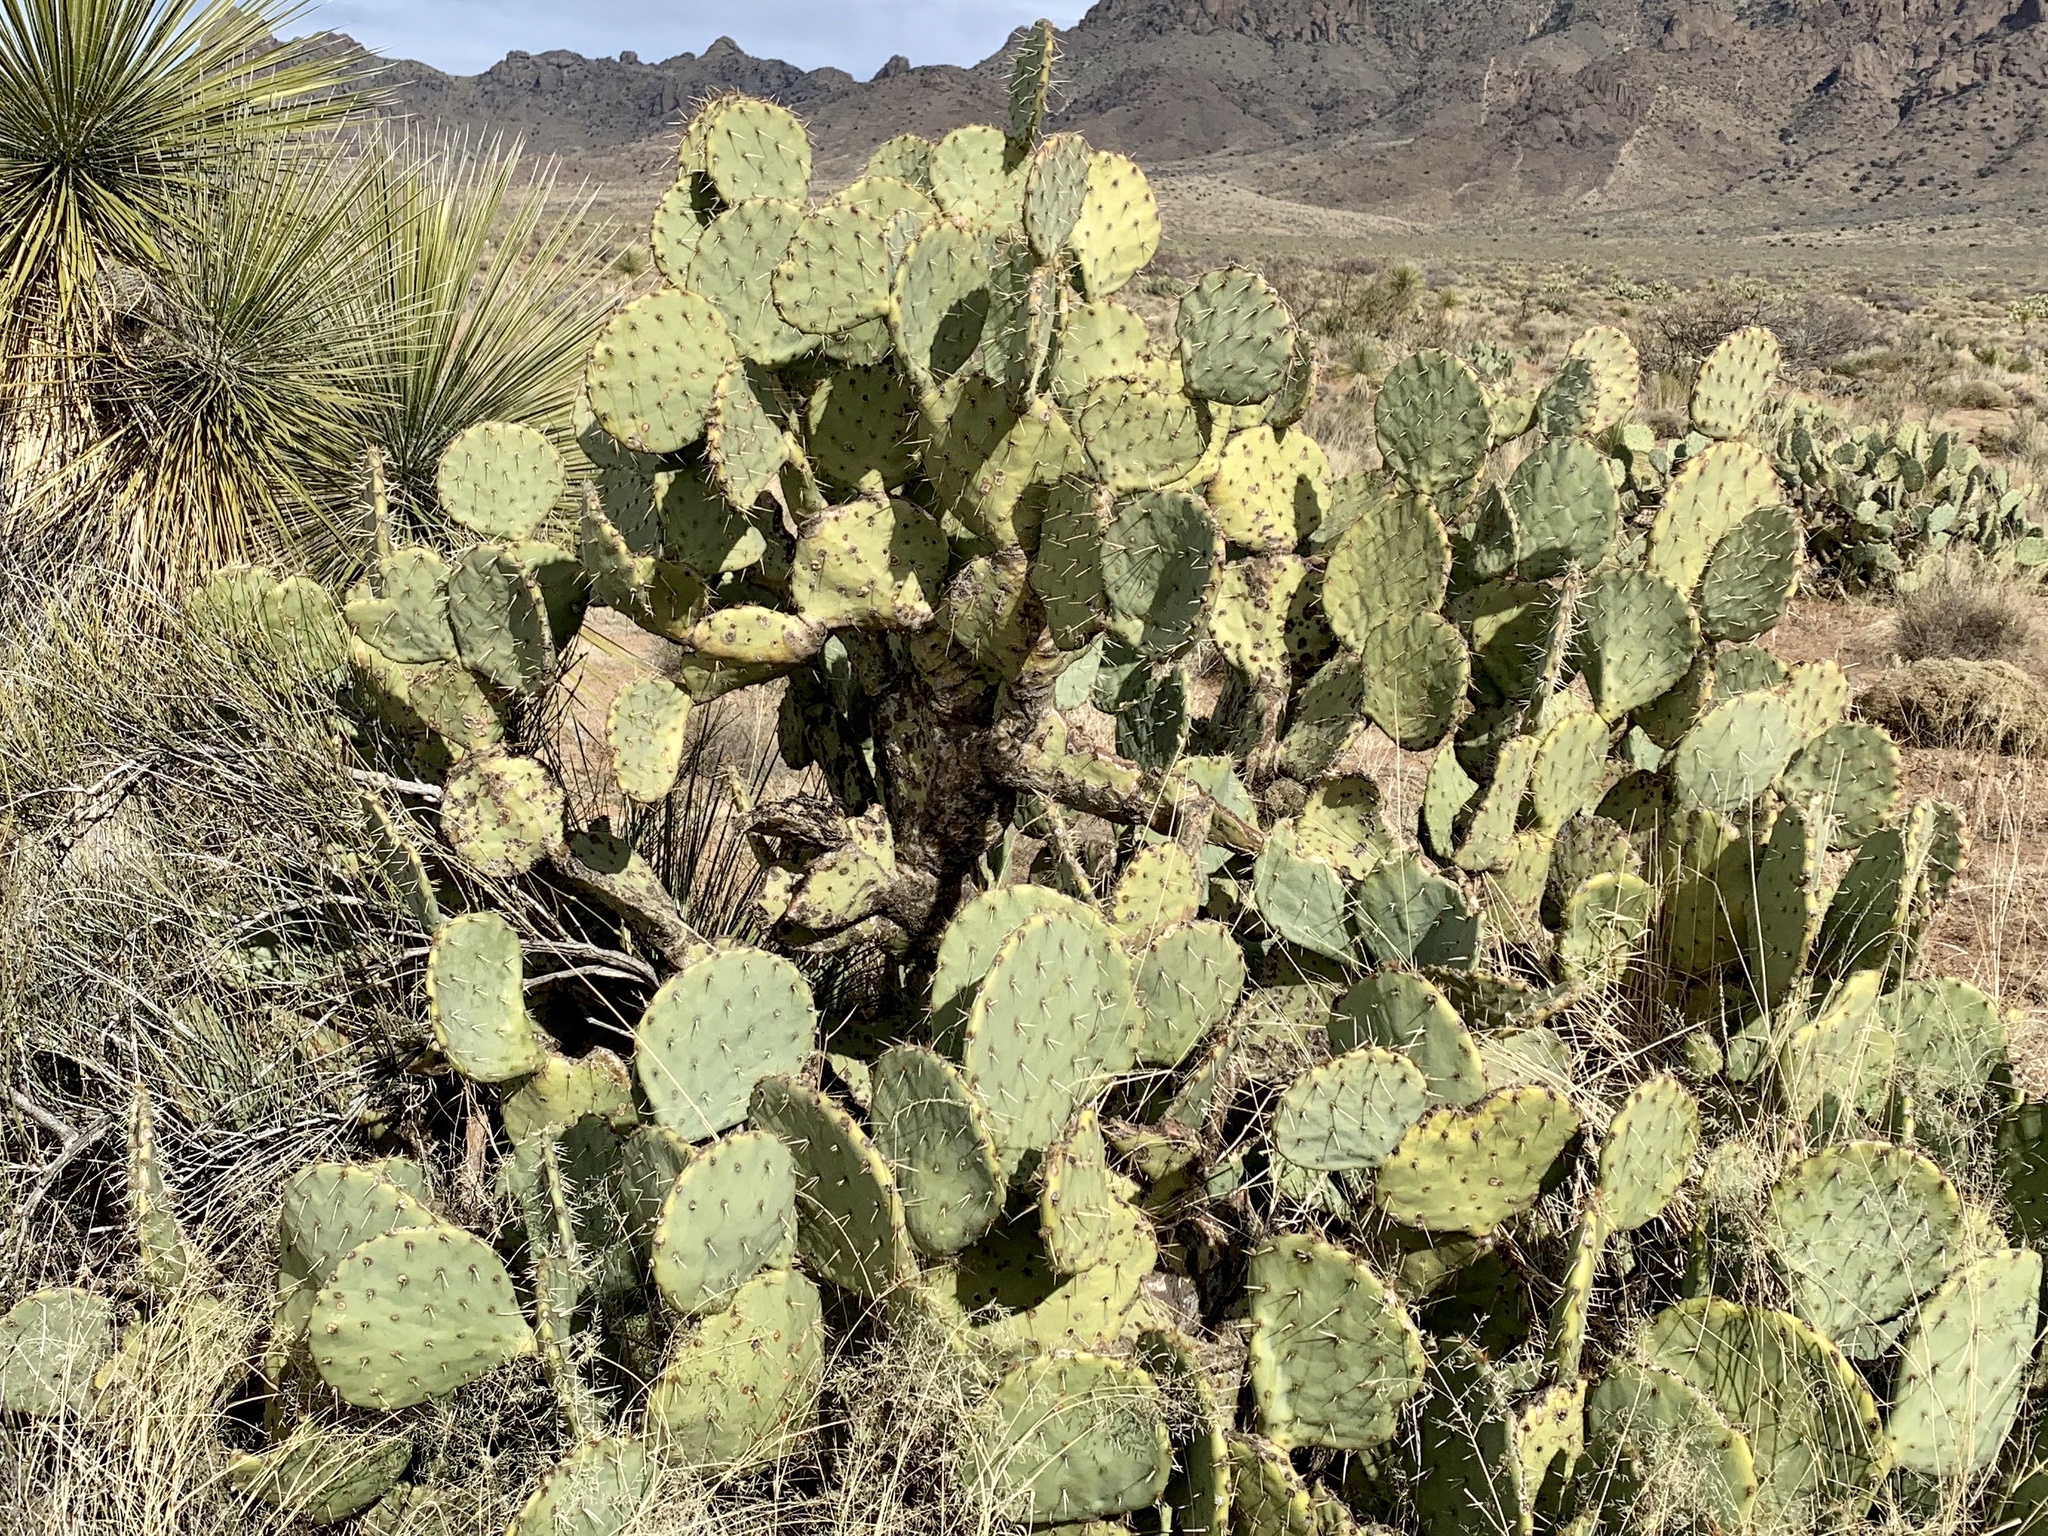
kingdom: Plantae
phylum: Tracheophyta
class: Magnoliopsida
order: Caryophyllales
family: Cactaceae
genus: Opuntia
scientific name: Opuntia engelmannii
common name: Cactus-apple
